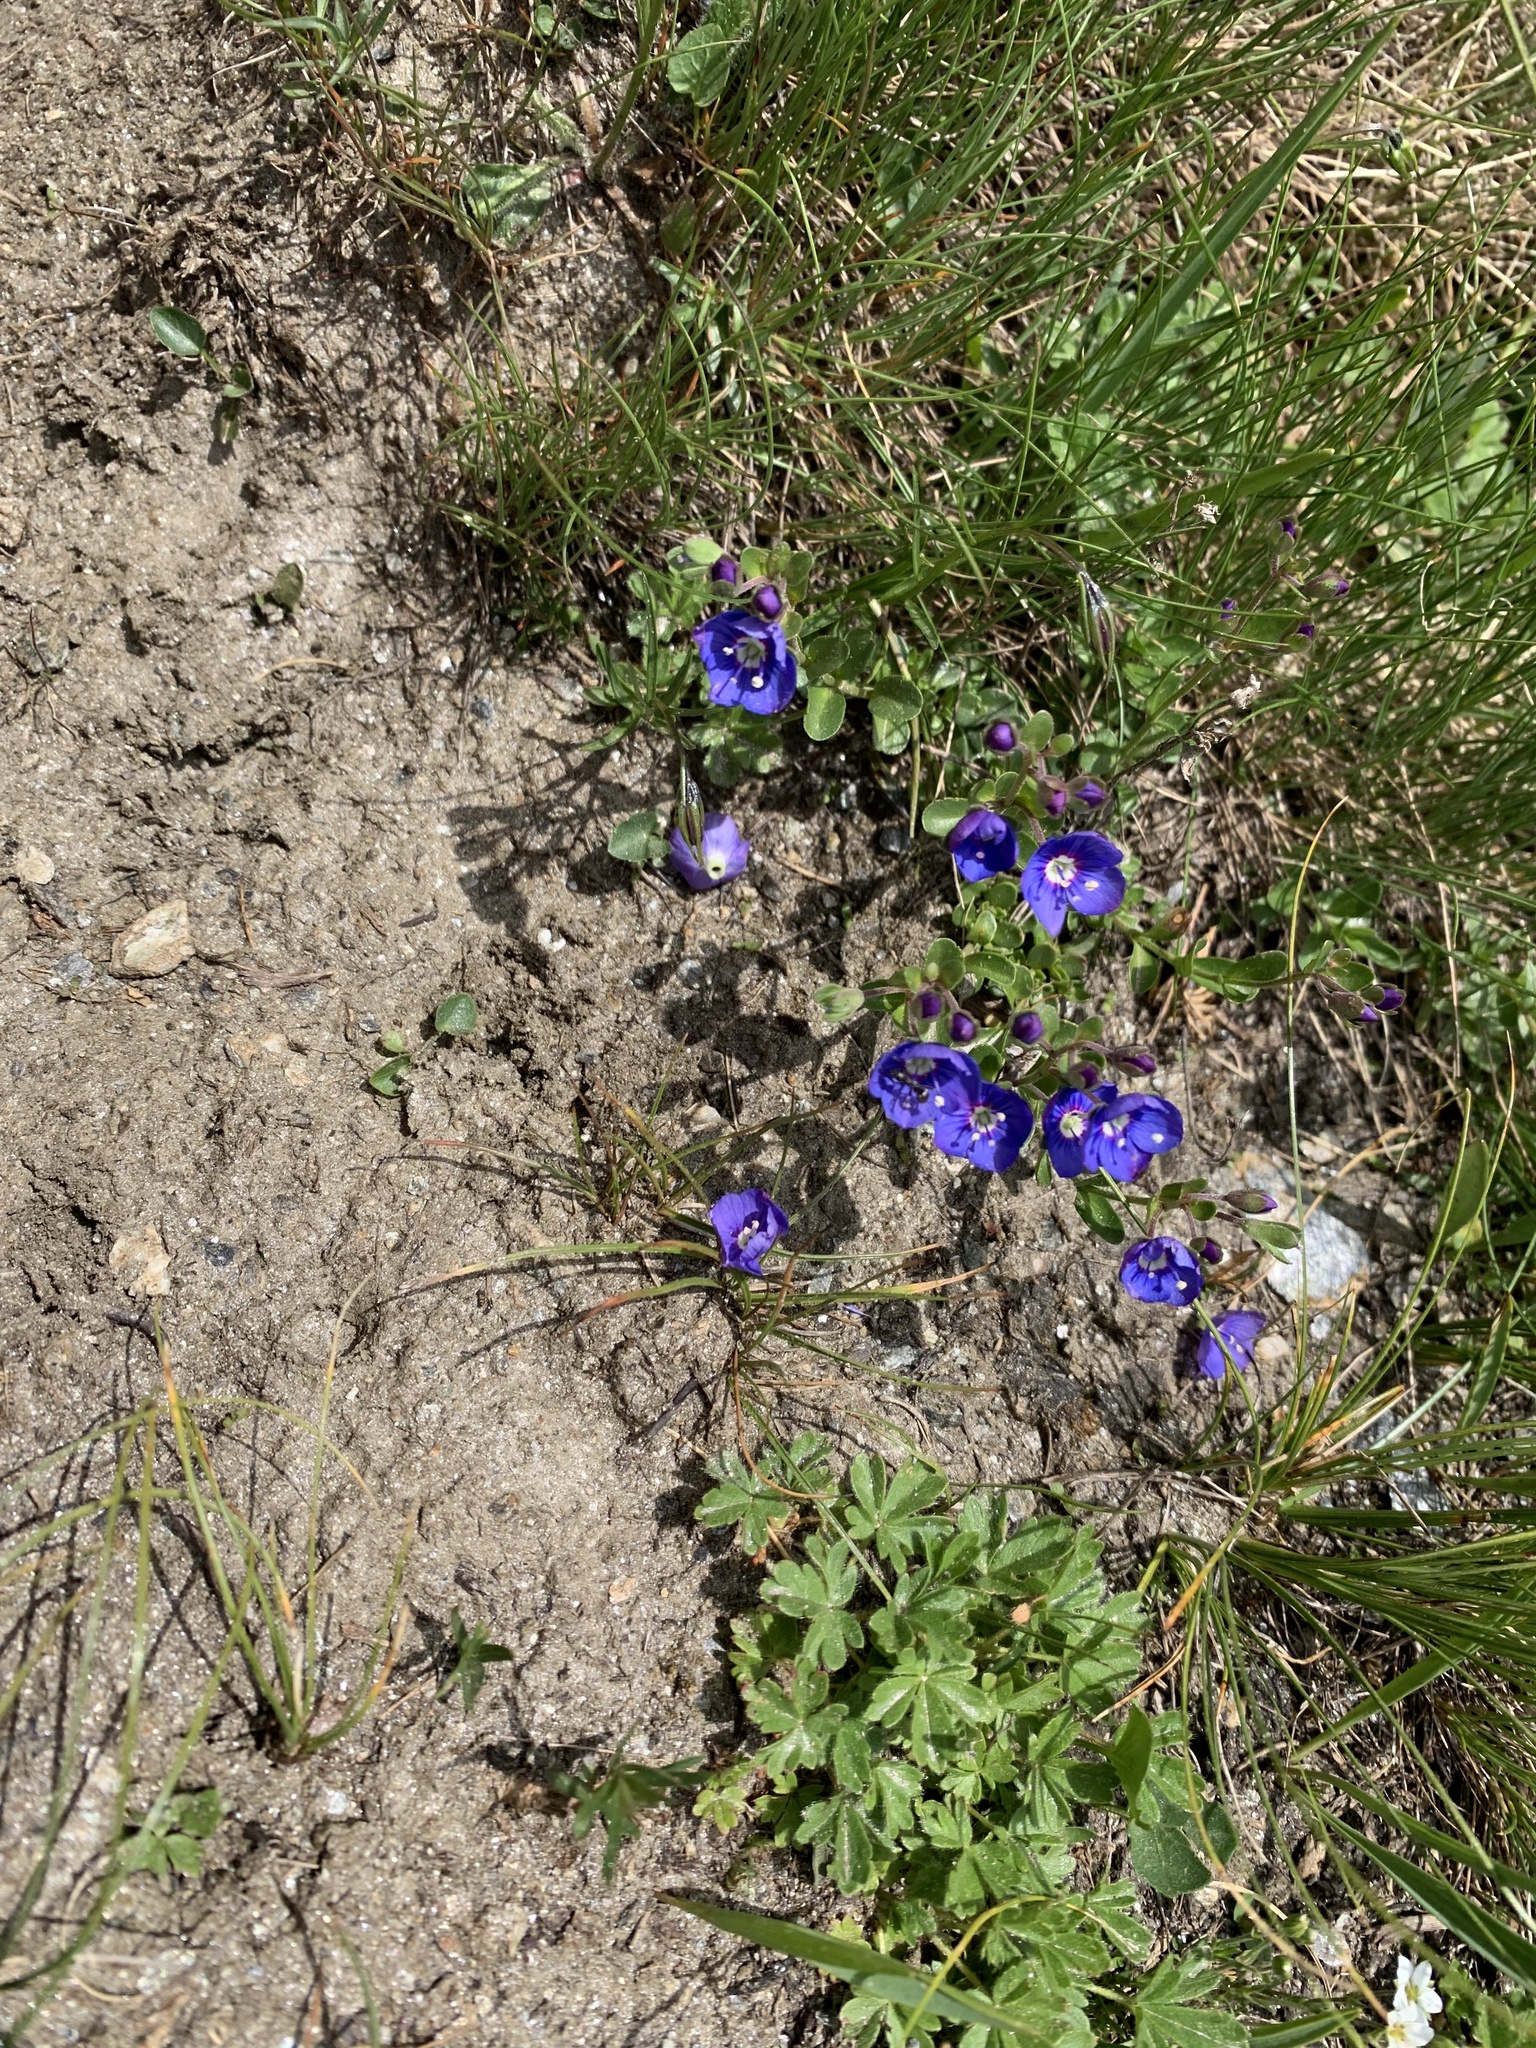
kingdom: Plantae
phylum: Tracheophyta
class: Magnoliopsida
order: Lamiales
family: Plantaginaceae
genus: Veronica
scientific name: Veronica fruticans
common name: Rock speedwell
